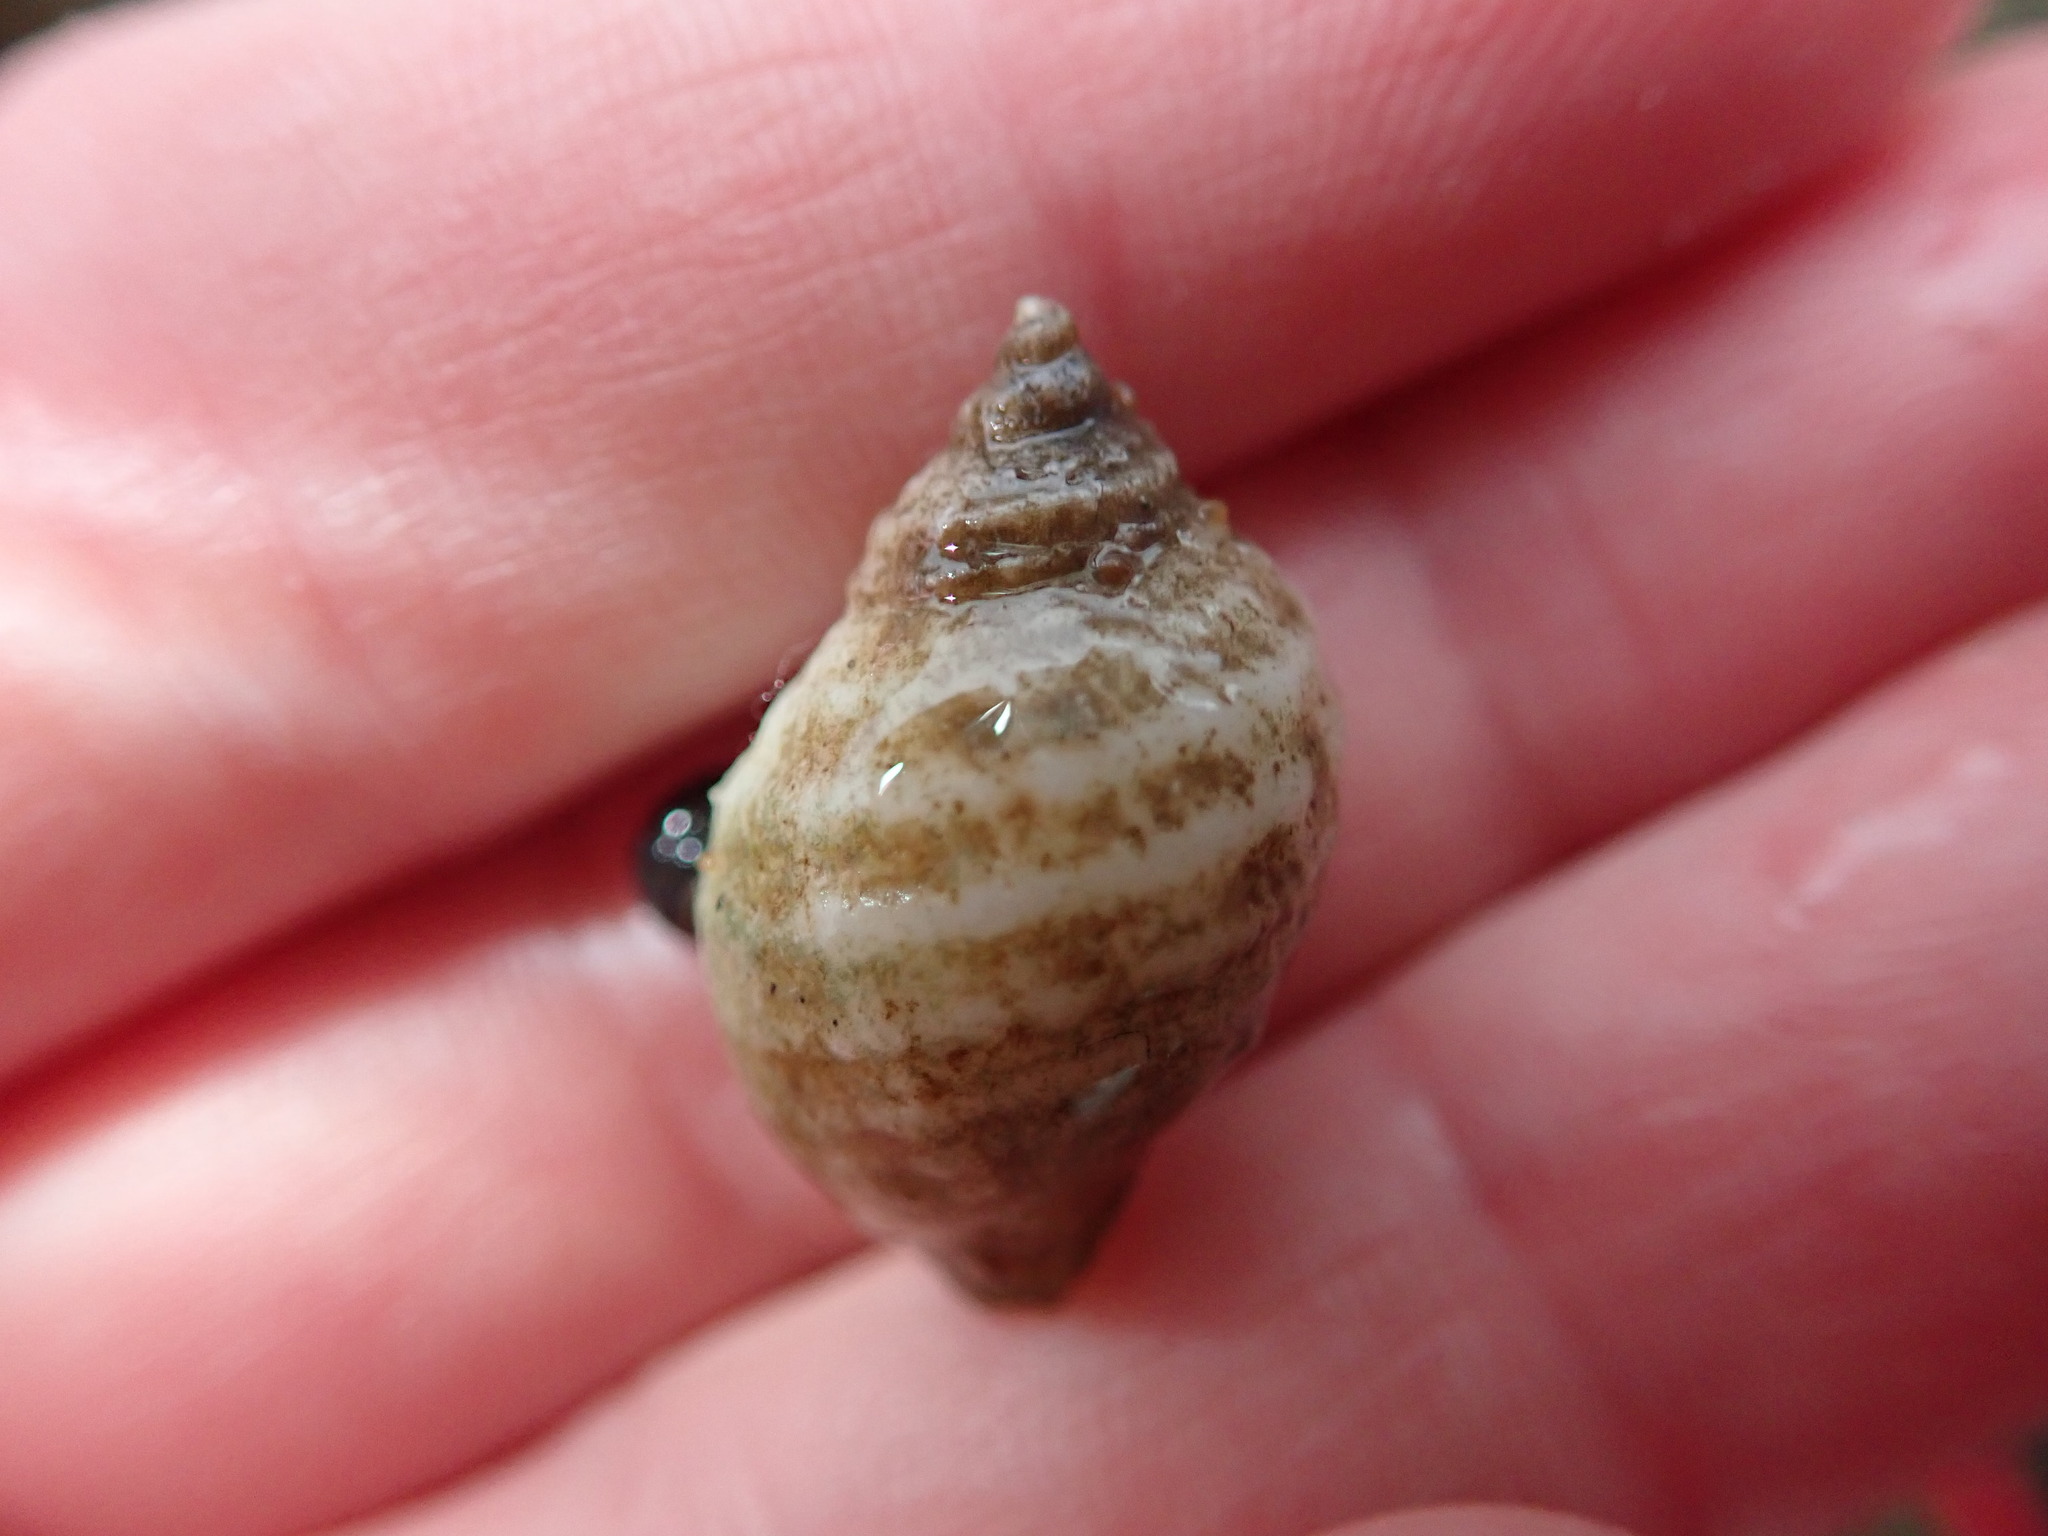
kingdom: Animalia
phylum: Mollusca
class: Gastropoda
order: Neogastropoda
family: Muricidae
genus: Nucella
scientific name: Nucella lapillus
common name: Dog whelk
